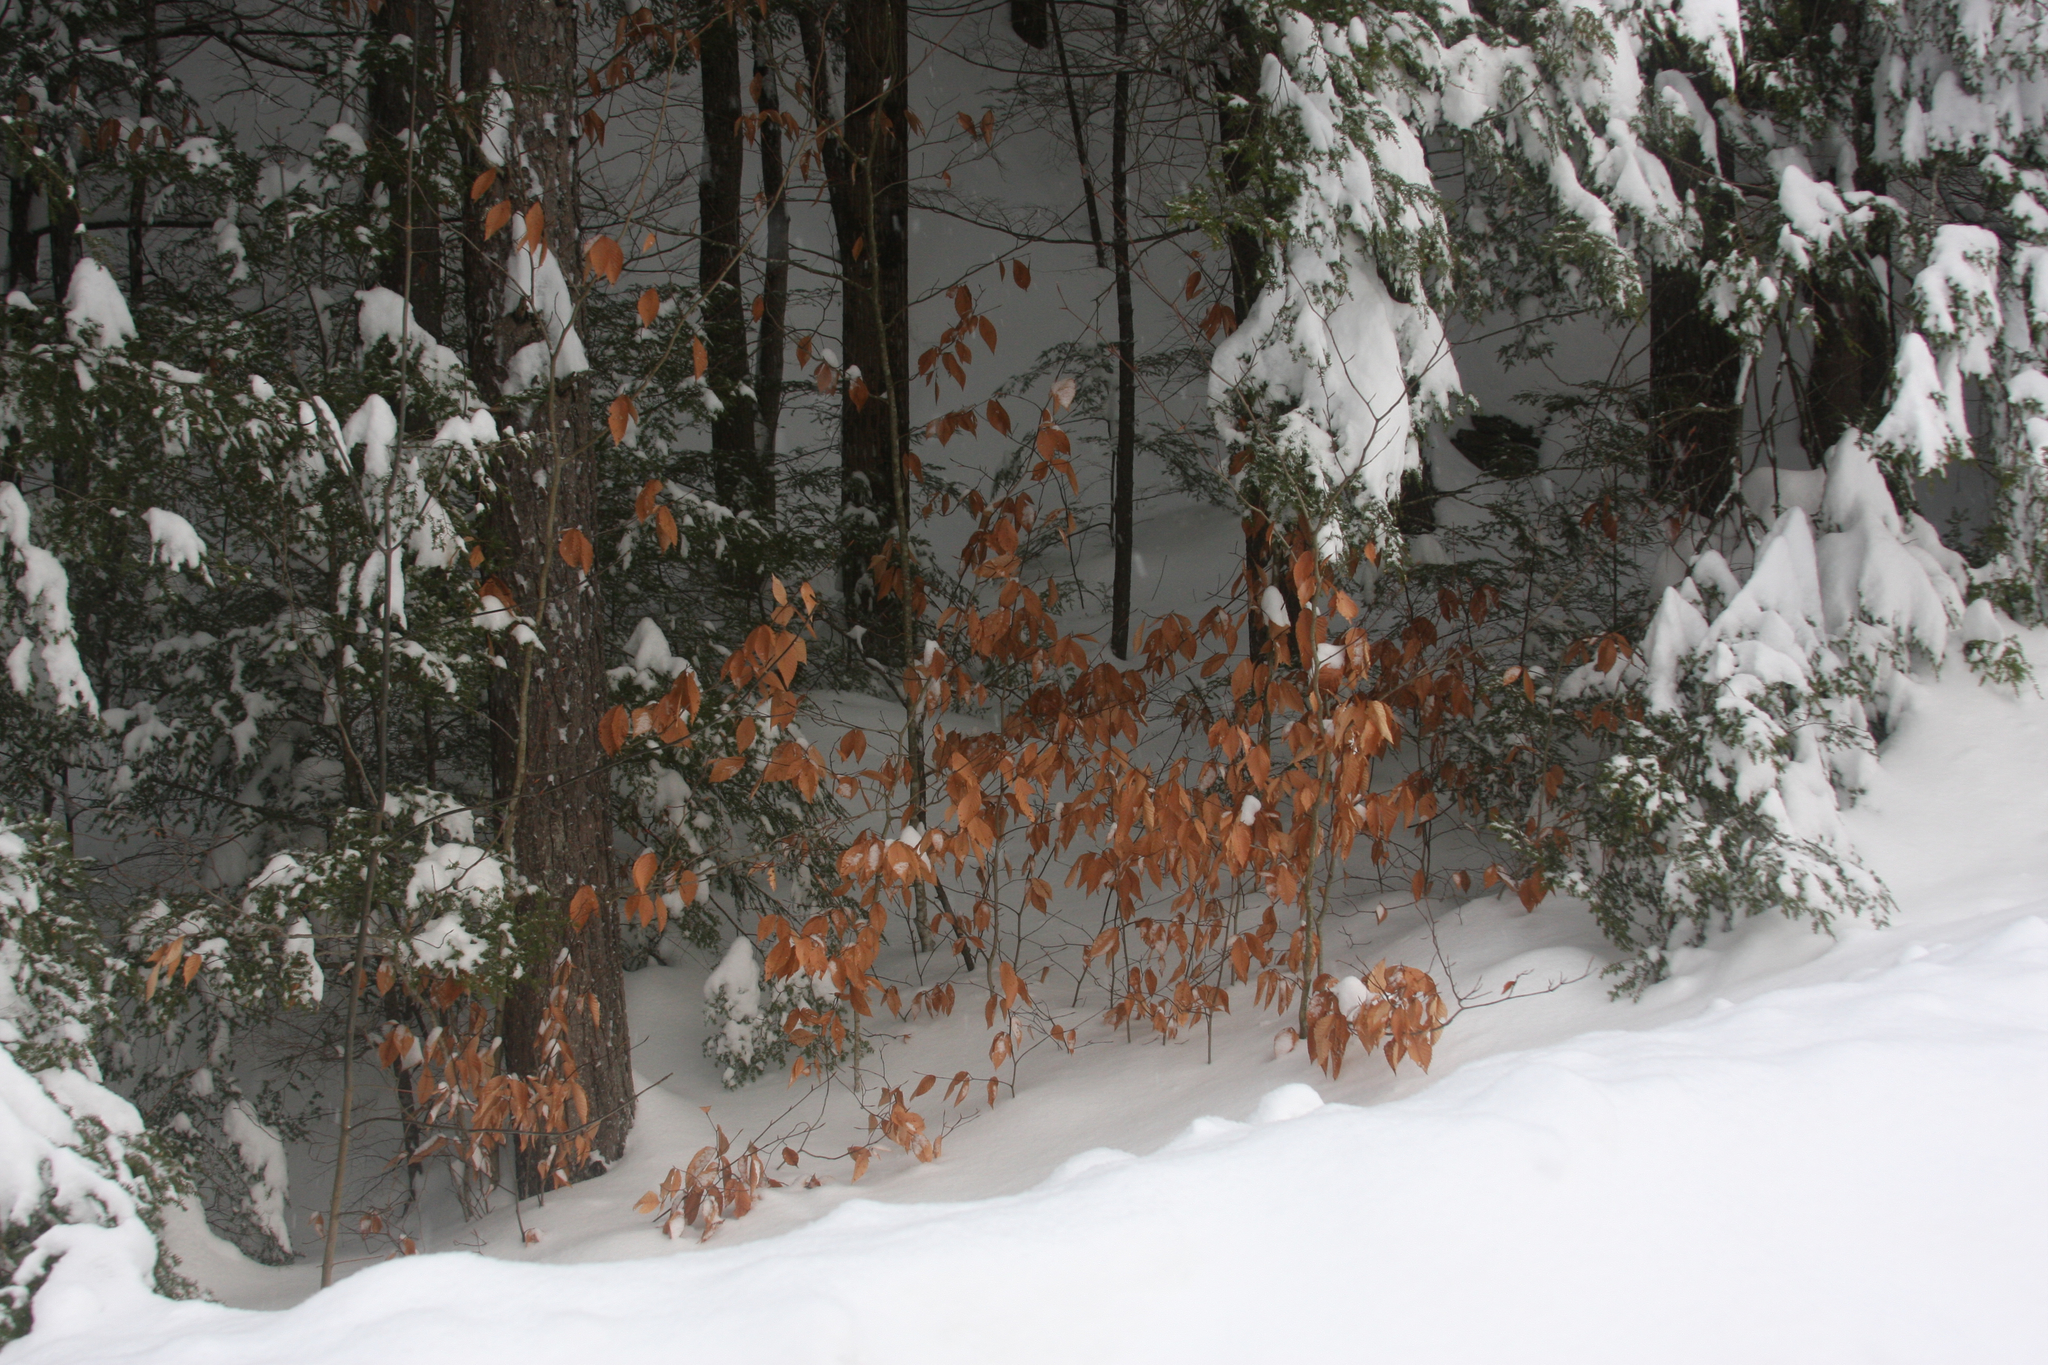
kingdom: Plantae
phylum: Tracheophyta
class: Magnoliopsida
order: Fagales
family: Fagaceae
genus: Fagus
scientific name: Fagus grandifolia
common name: American beech
